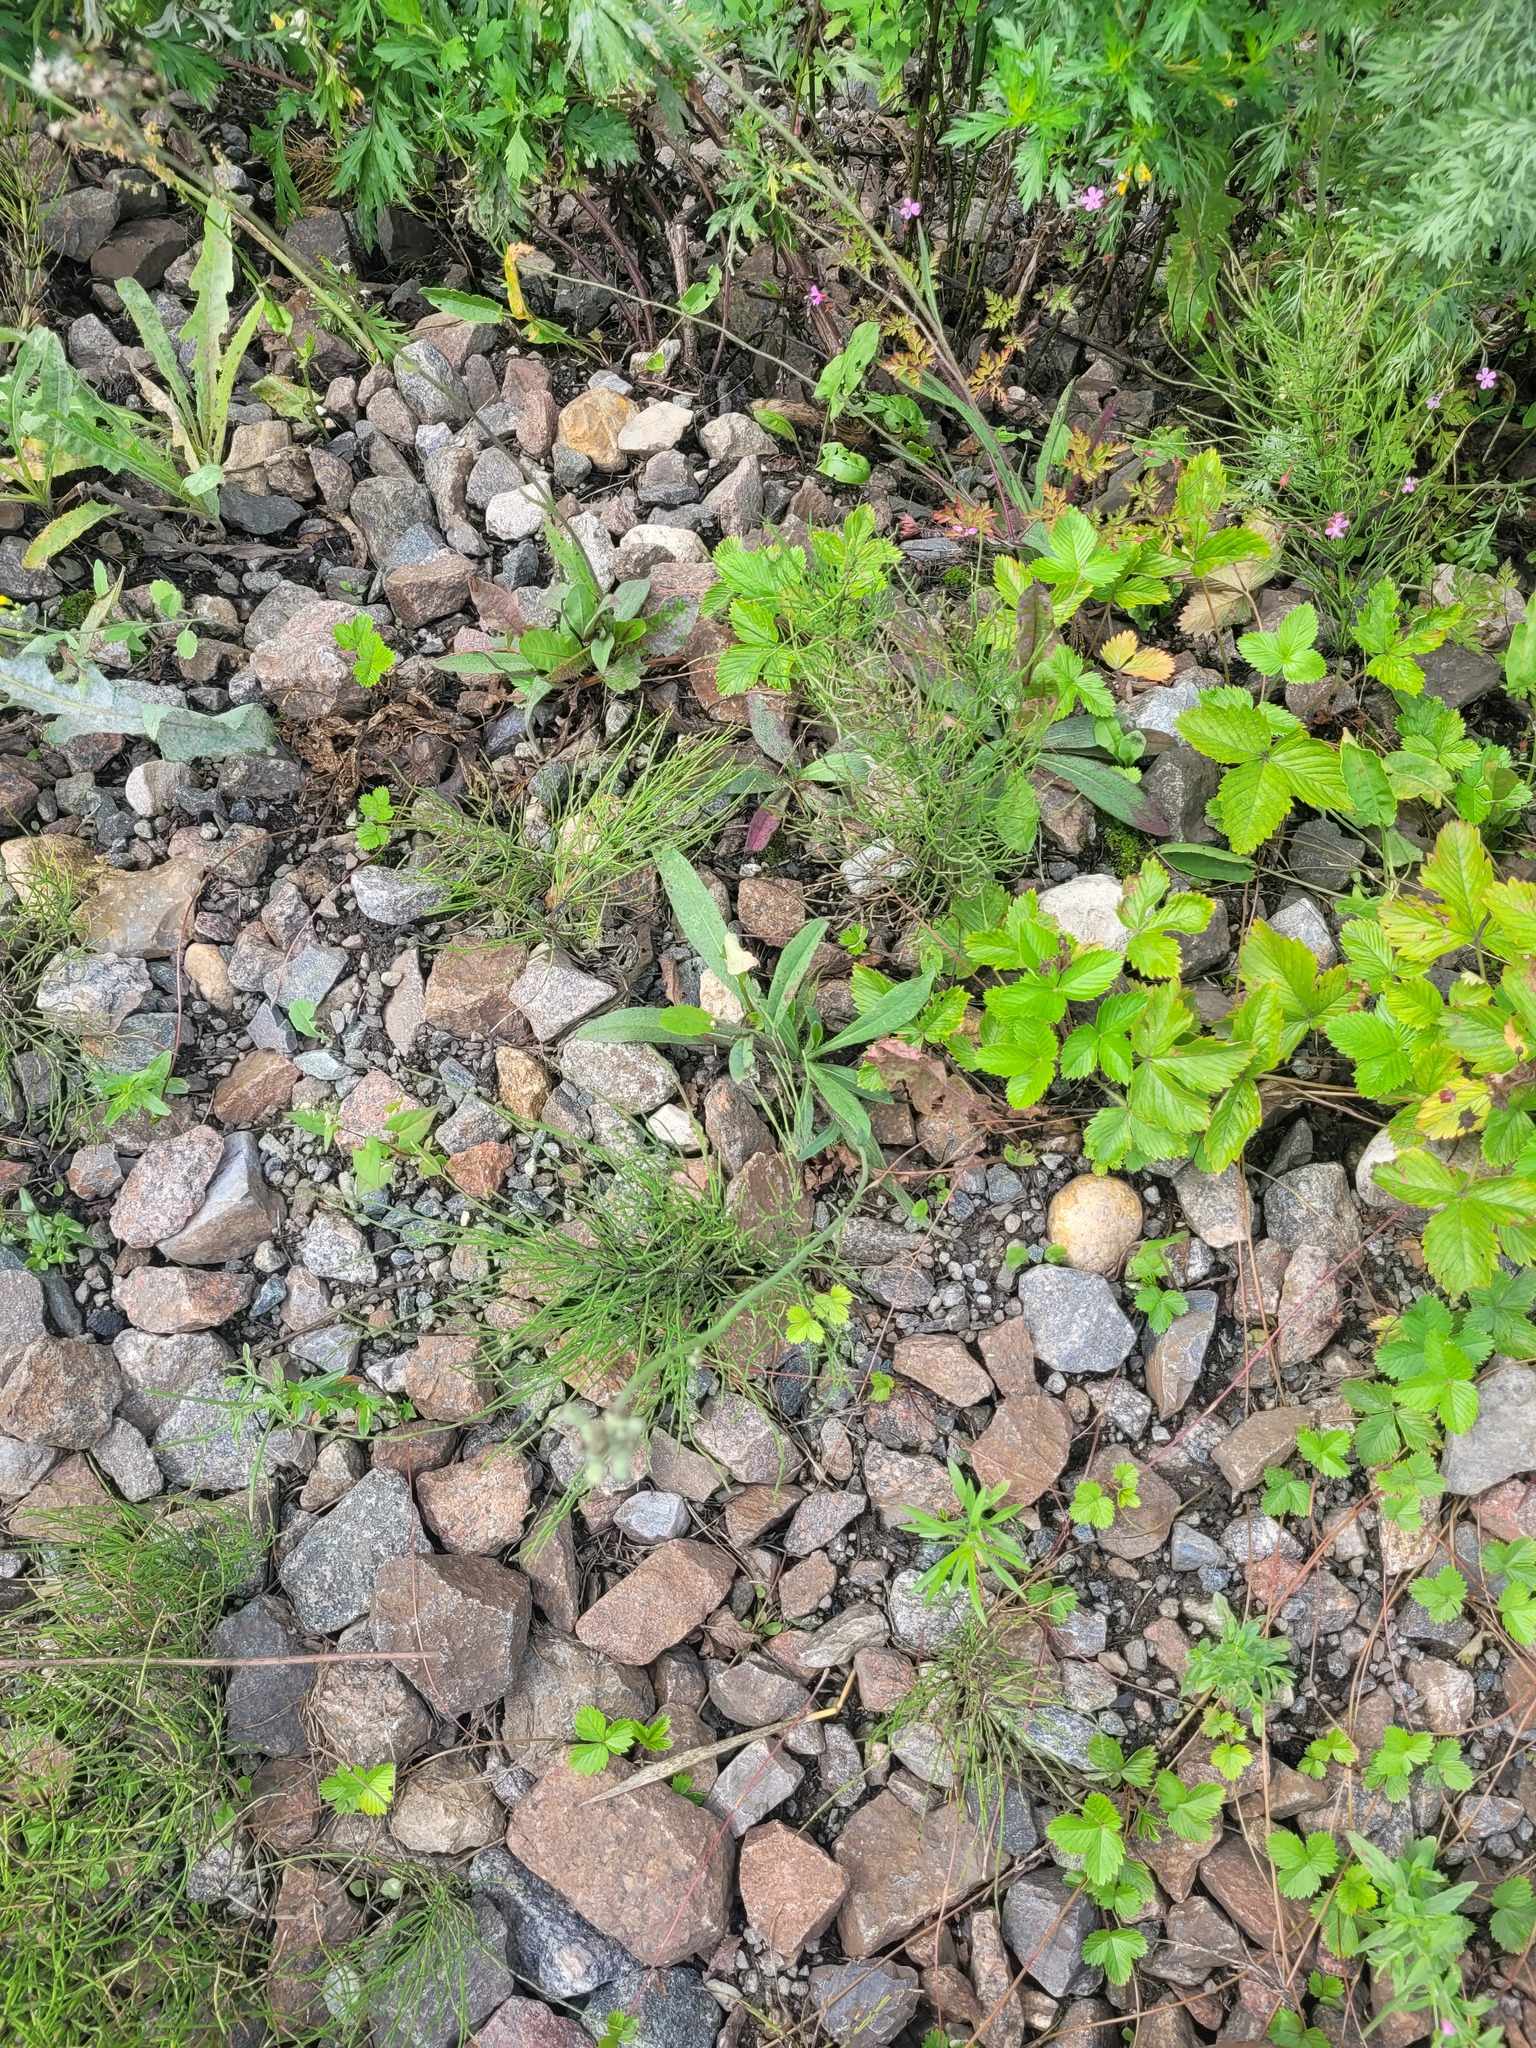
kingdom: Plantae
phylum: Tracheophyta
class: Magnoliopsida
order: Asterales
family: Asteraceae
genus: Pilosella
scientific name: Pilosella
